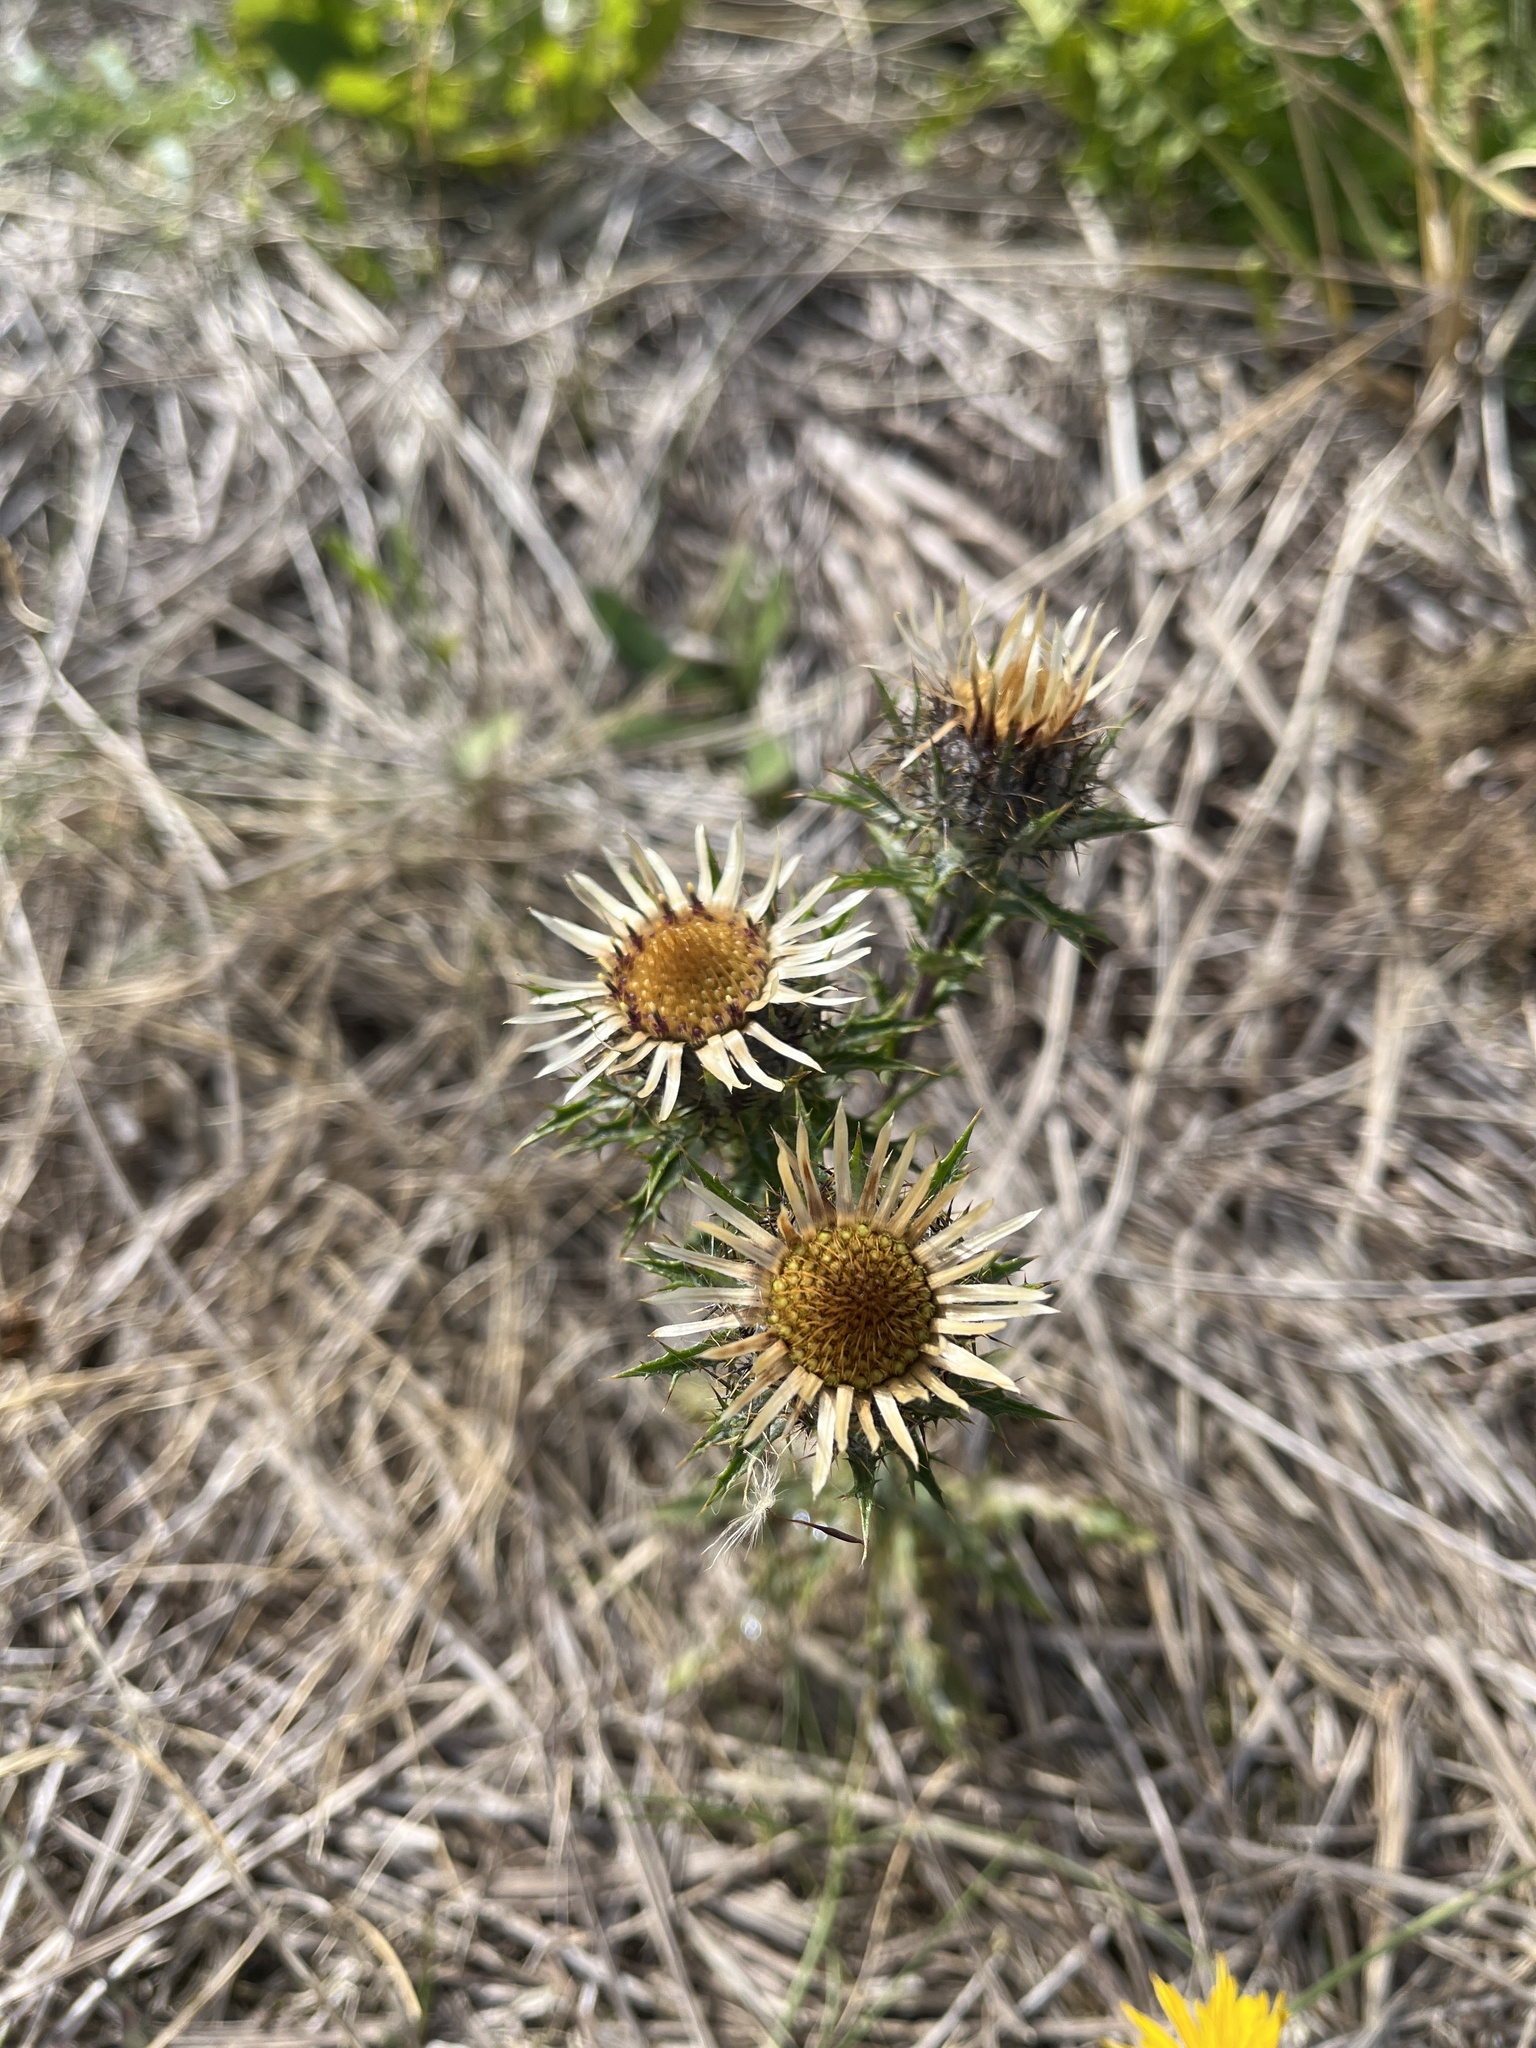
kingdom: Plantae
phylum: Tracheophyta
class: Magnoliopsida
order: Asterales
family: Asteraceae
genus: Carlina
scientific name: Carlina vulgaris
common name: Carline thistle
